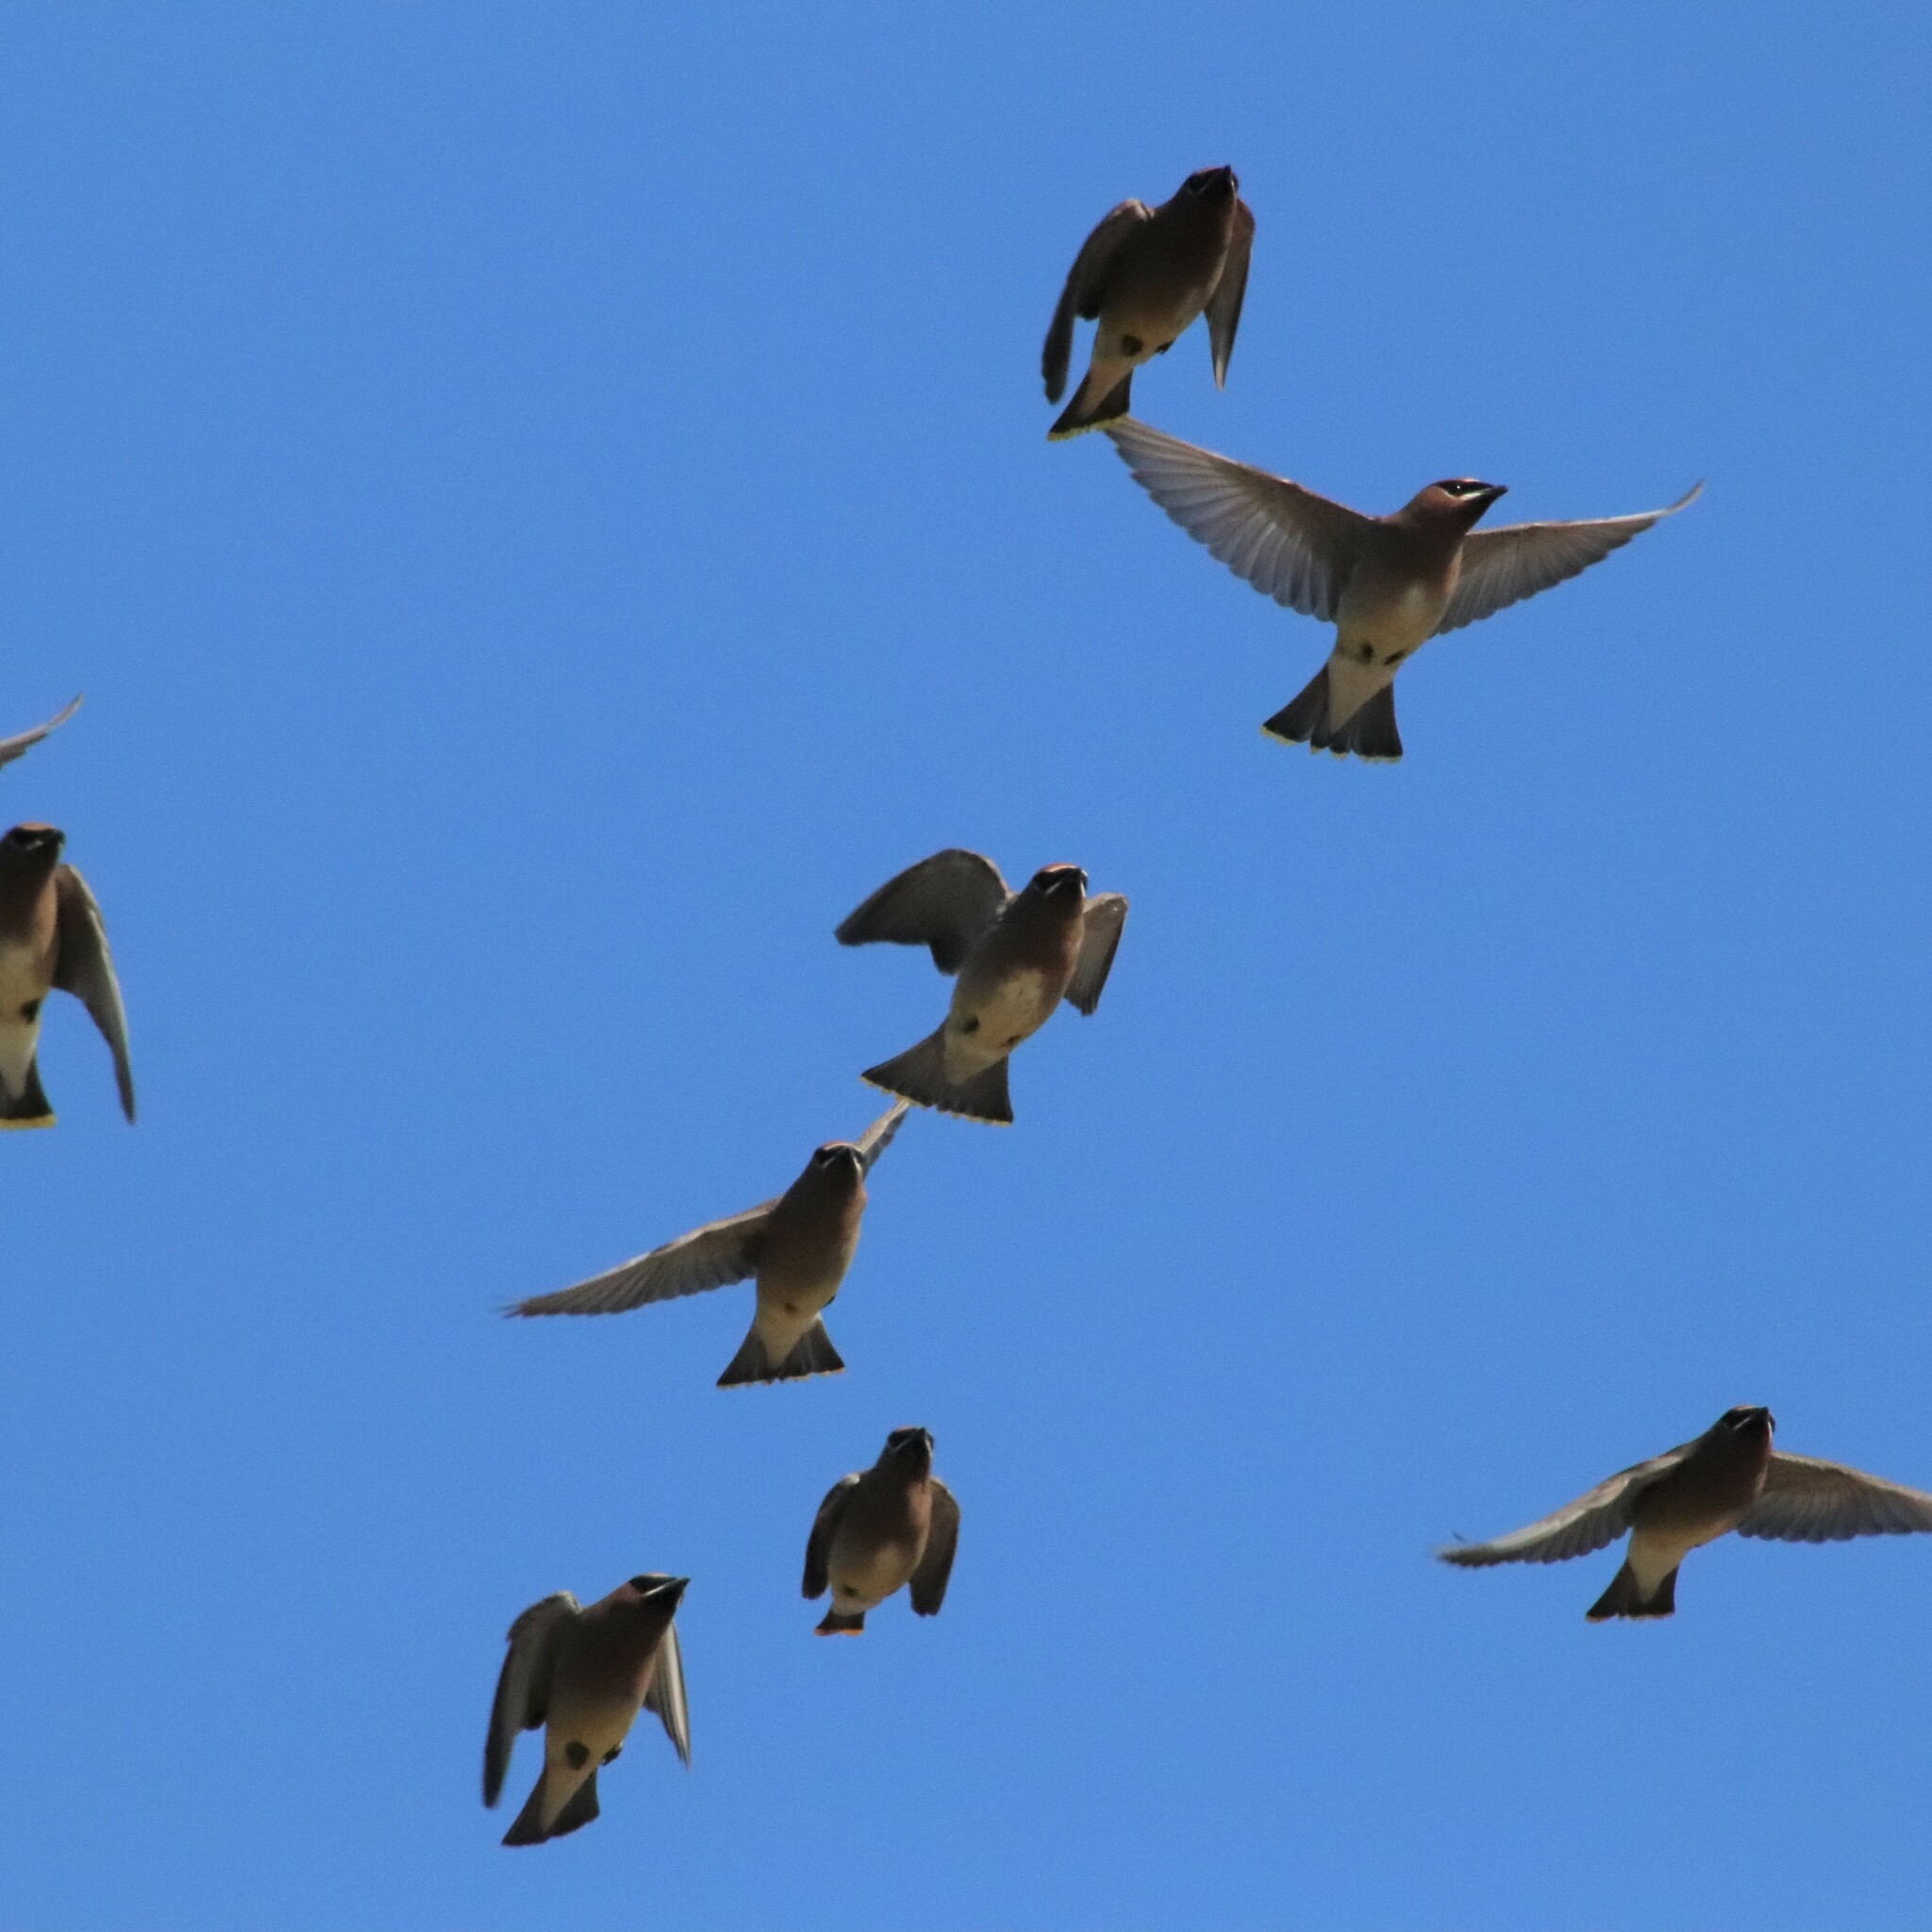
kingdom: Animalia
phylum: Chordata
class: Aves
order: Passeriformes
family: Bombycillidae
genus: Bombycilla
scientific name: Bombycilla cedrorum
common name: Cedar waxwing
